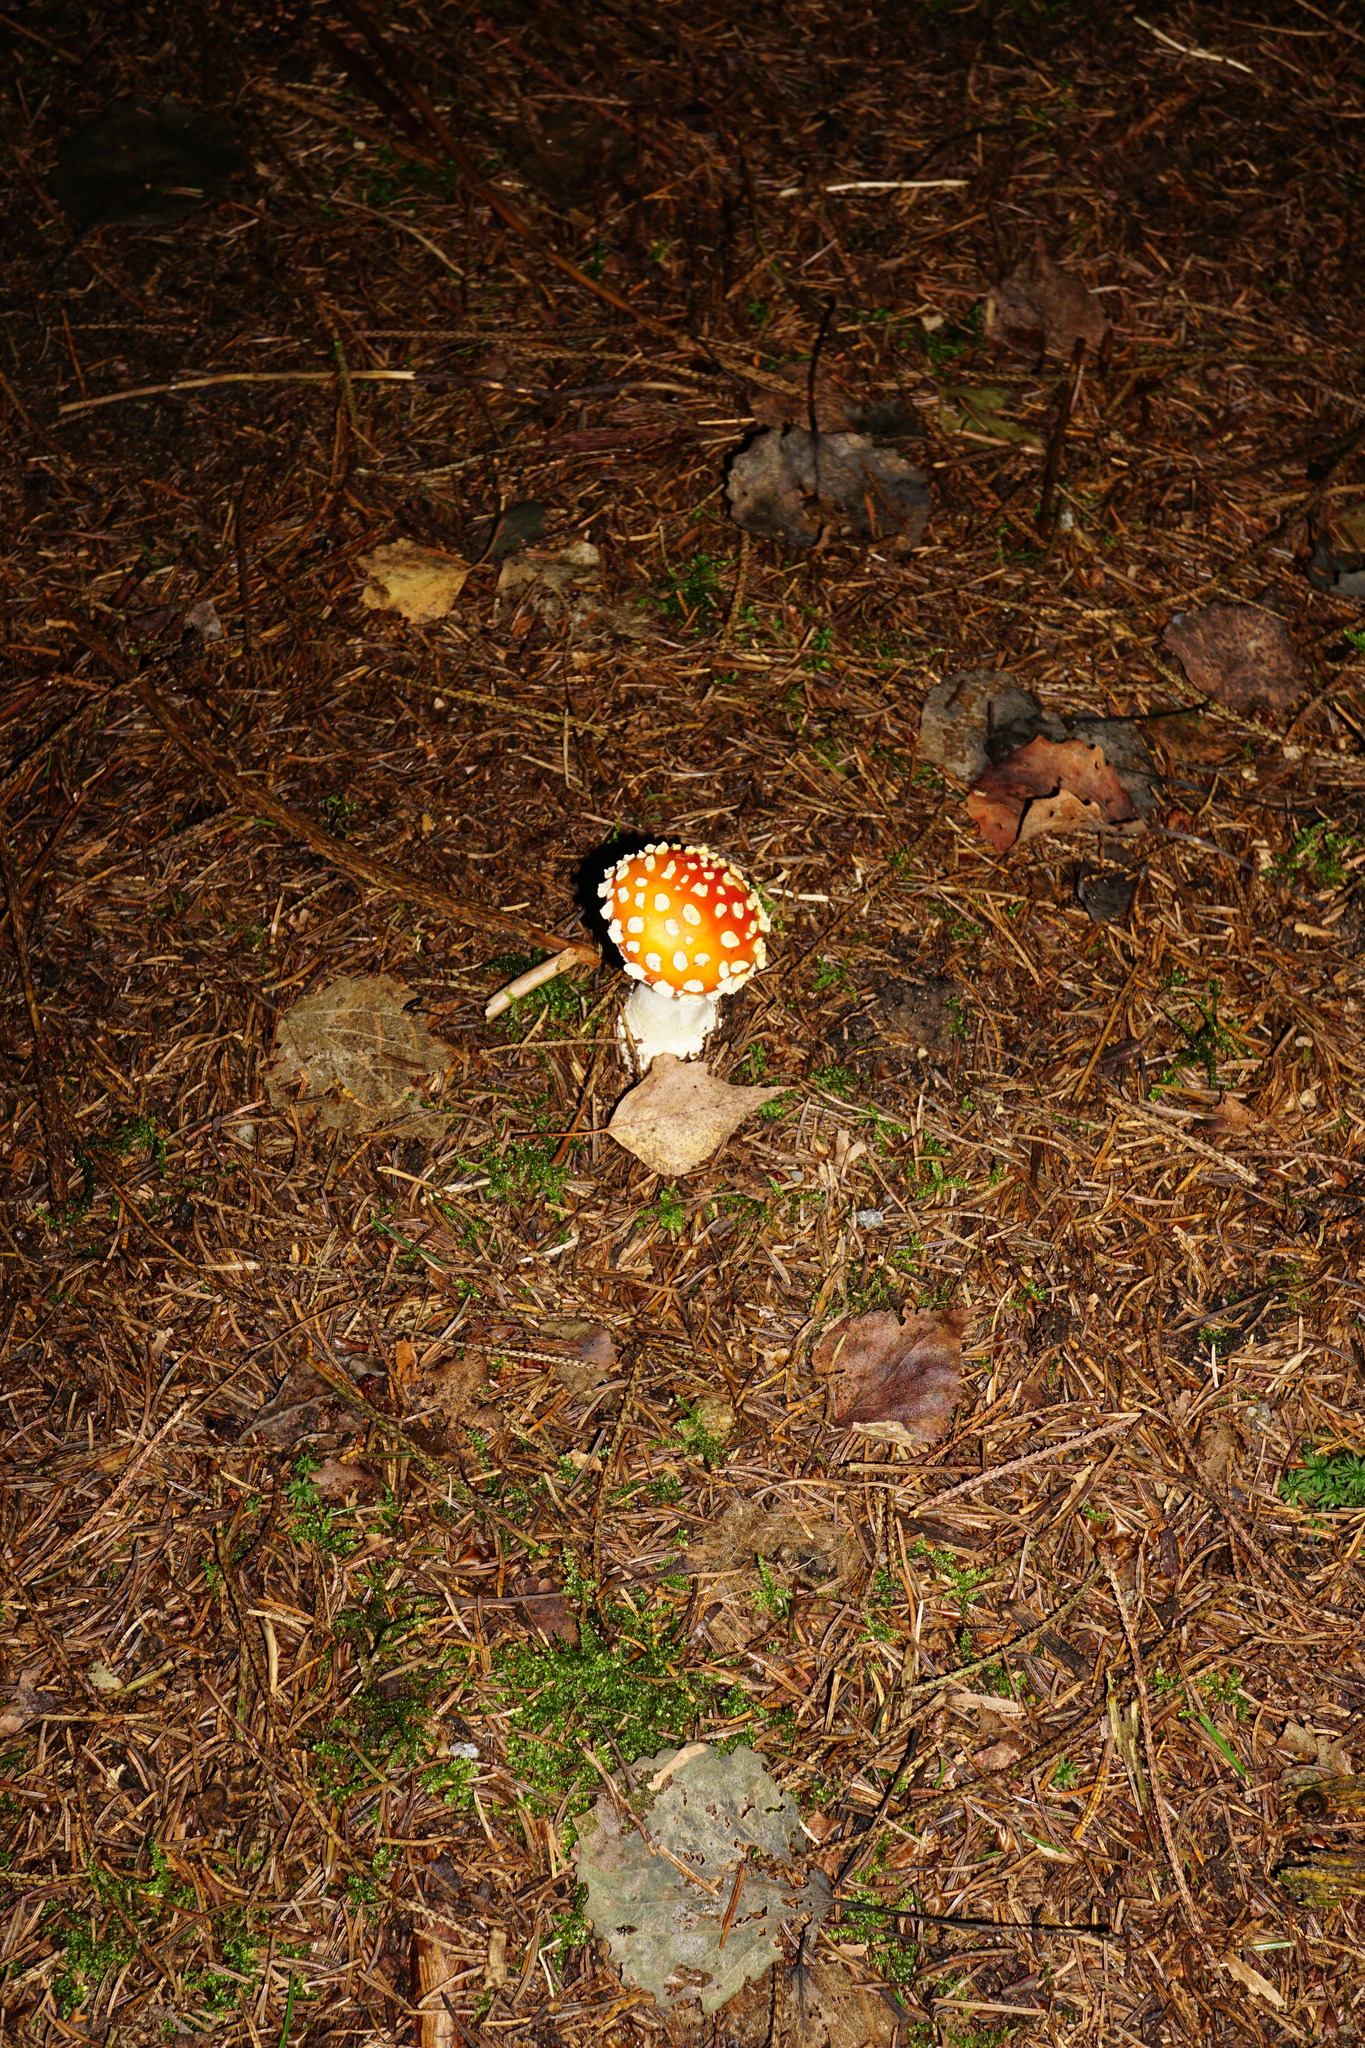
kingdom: Fungi
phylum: Basidiomycota
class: Agaricomycetes
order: Agaricales
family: Amanitaceae
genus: Amanita
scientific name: Amanita muscaria
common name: Fly agaric
